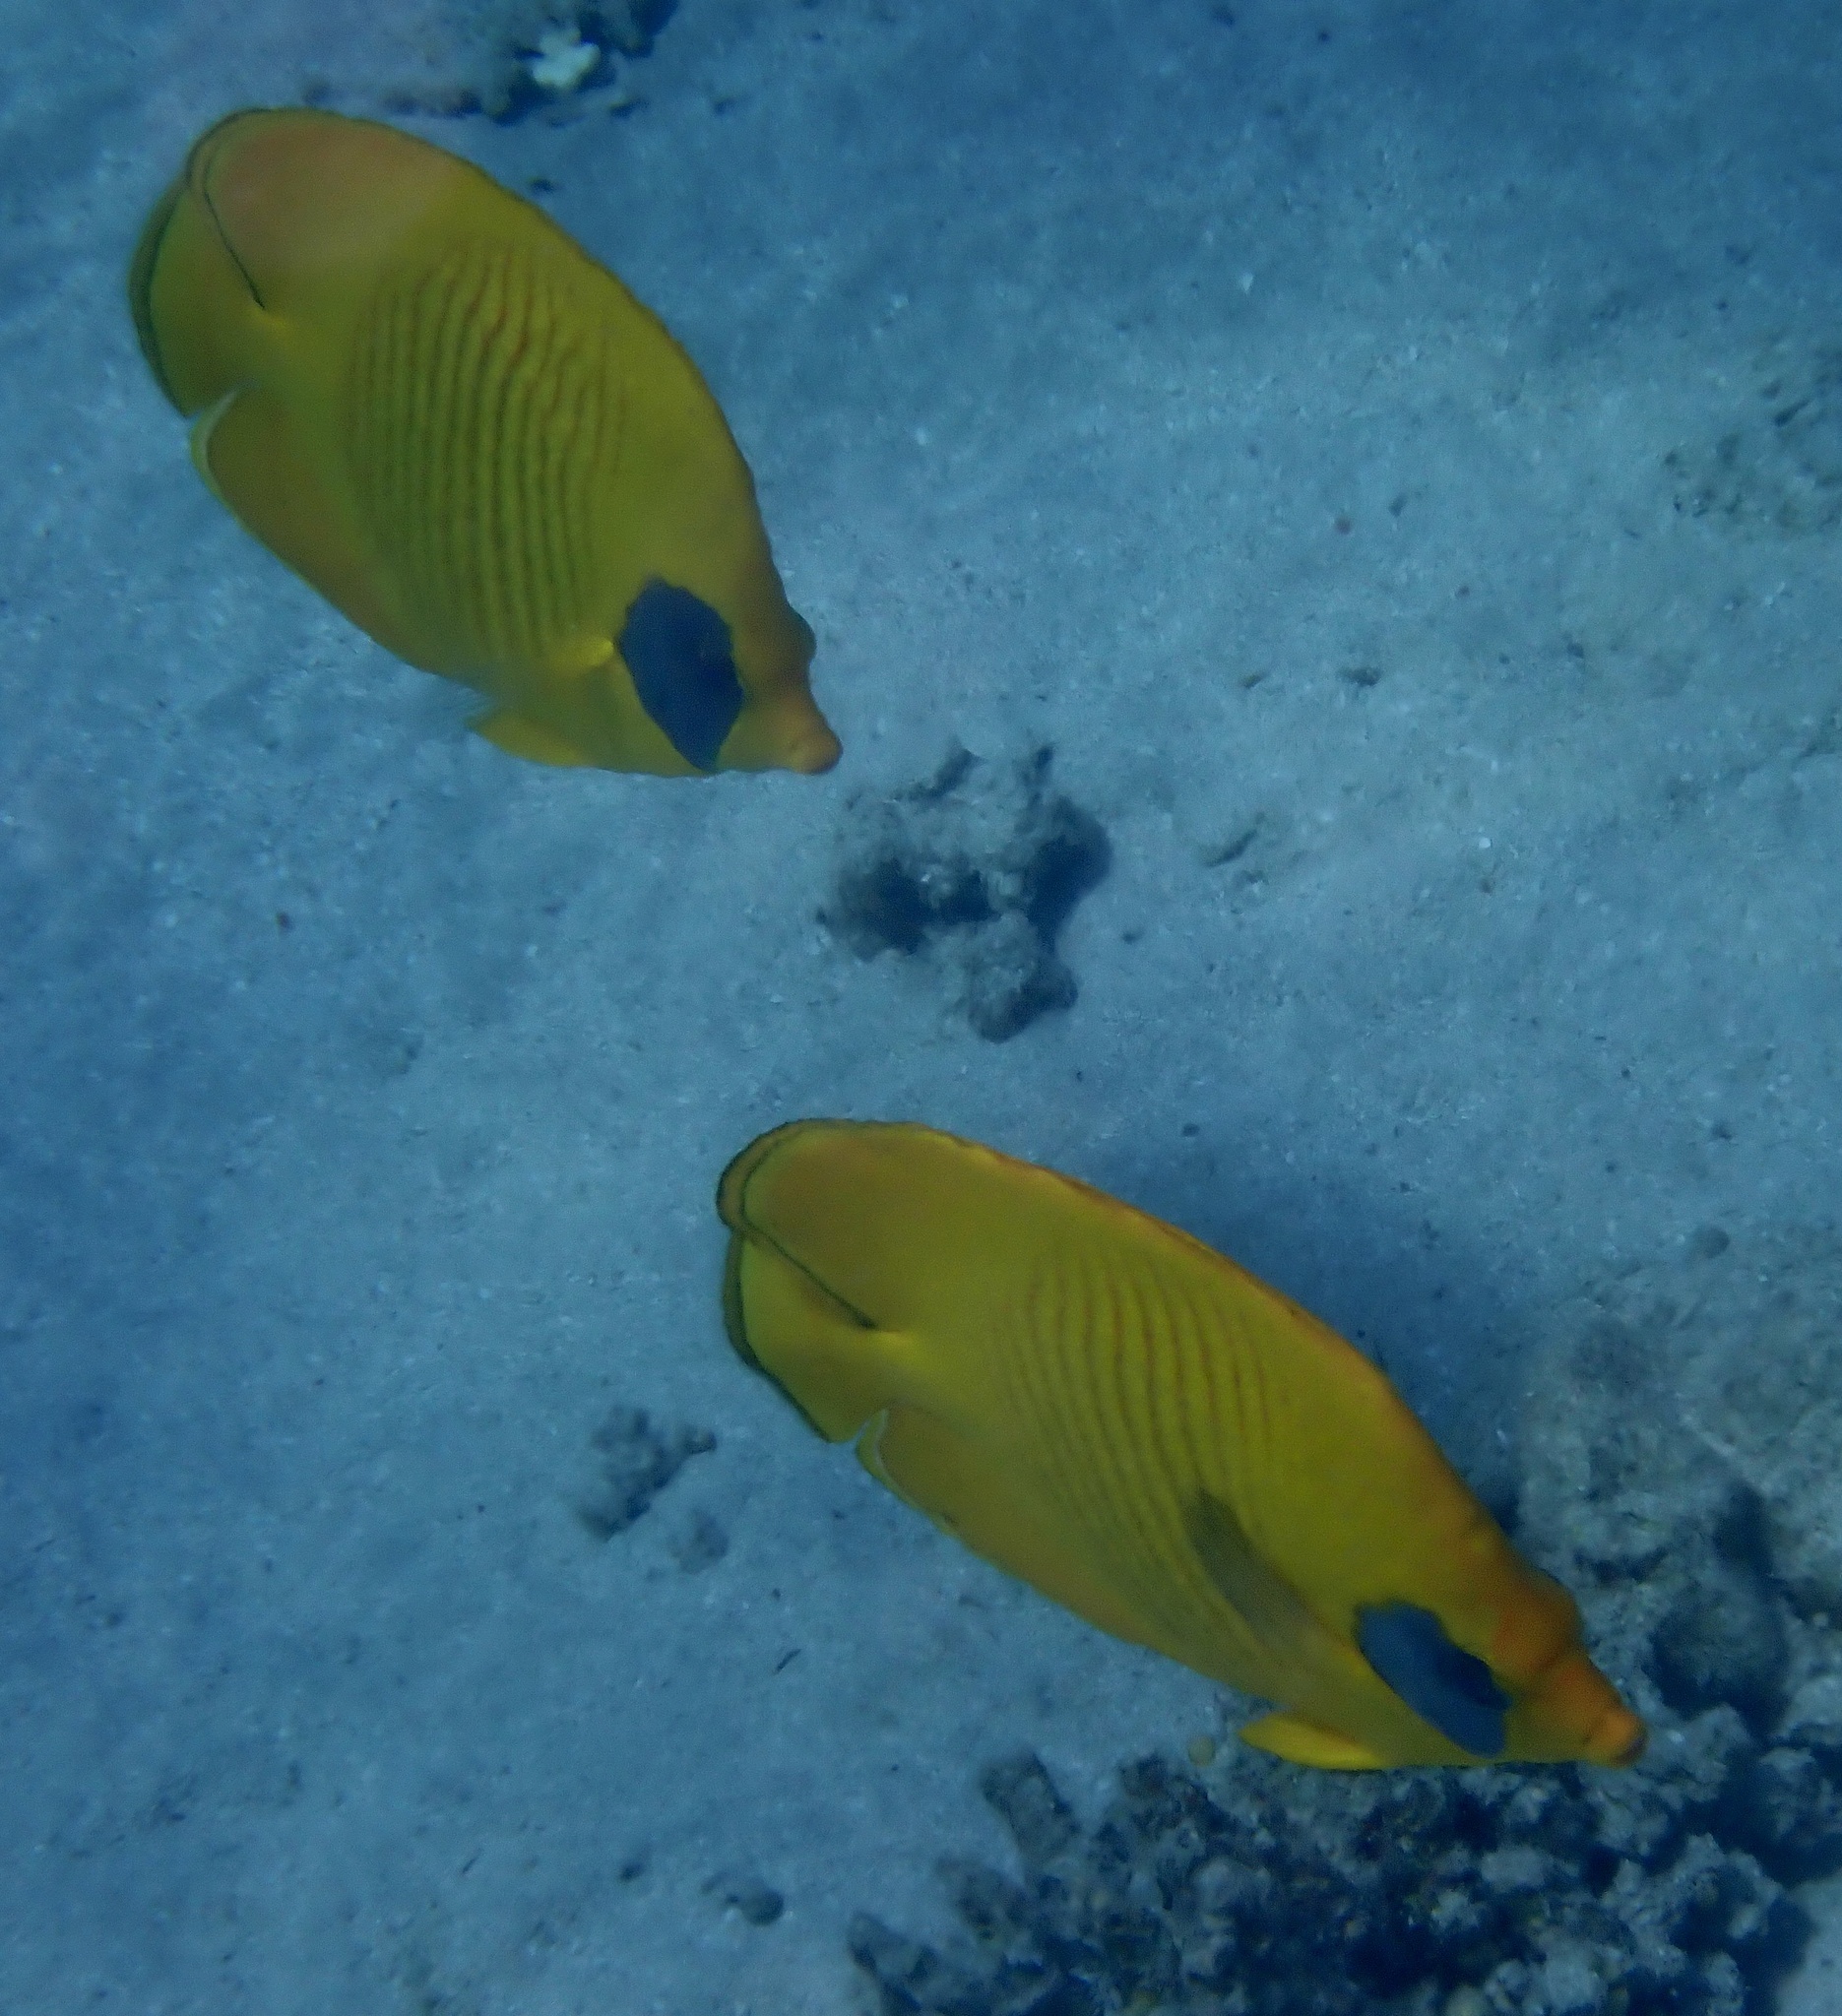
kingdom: Animalia
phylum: Chordata
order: Perciformes
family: Chaetodontidae
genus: Chaetodon
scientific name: Chaetodon semilarvatus
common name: Golden butterflyfish
